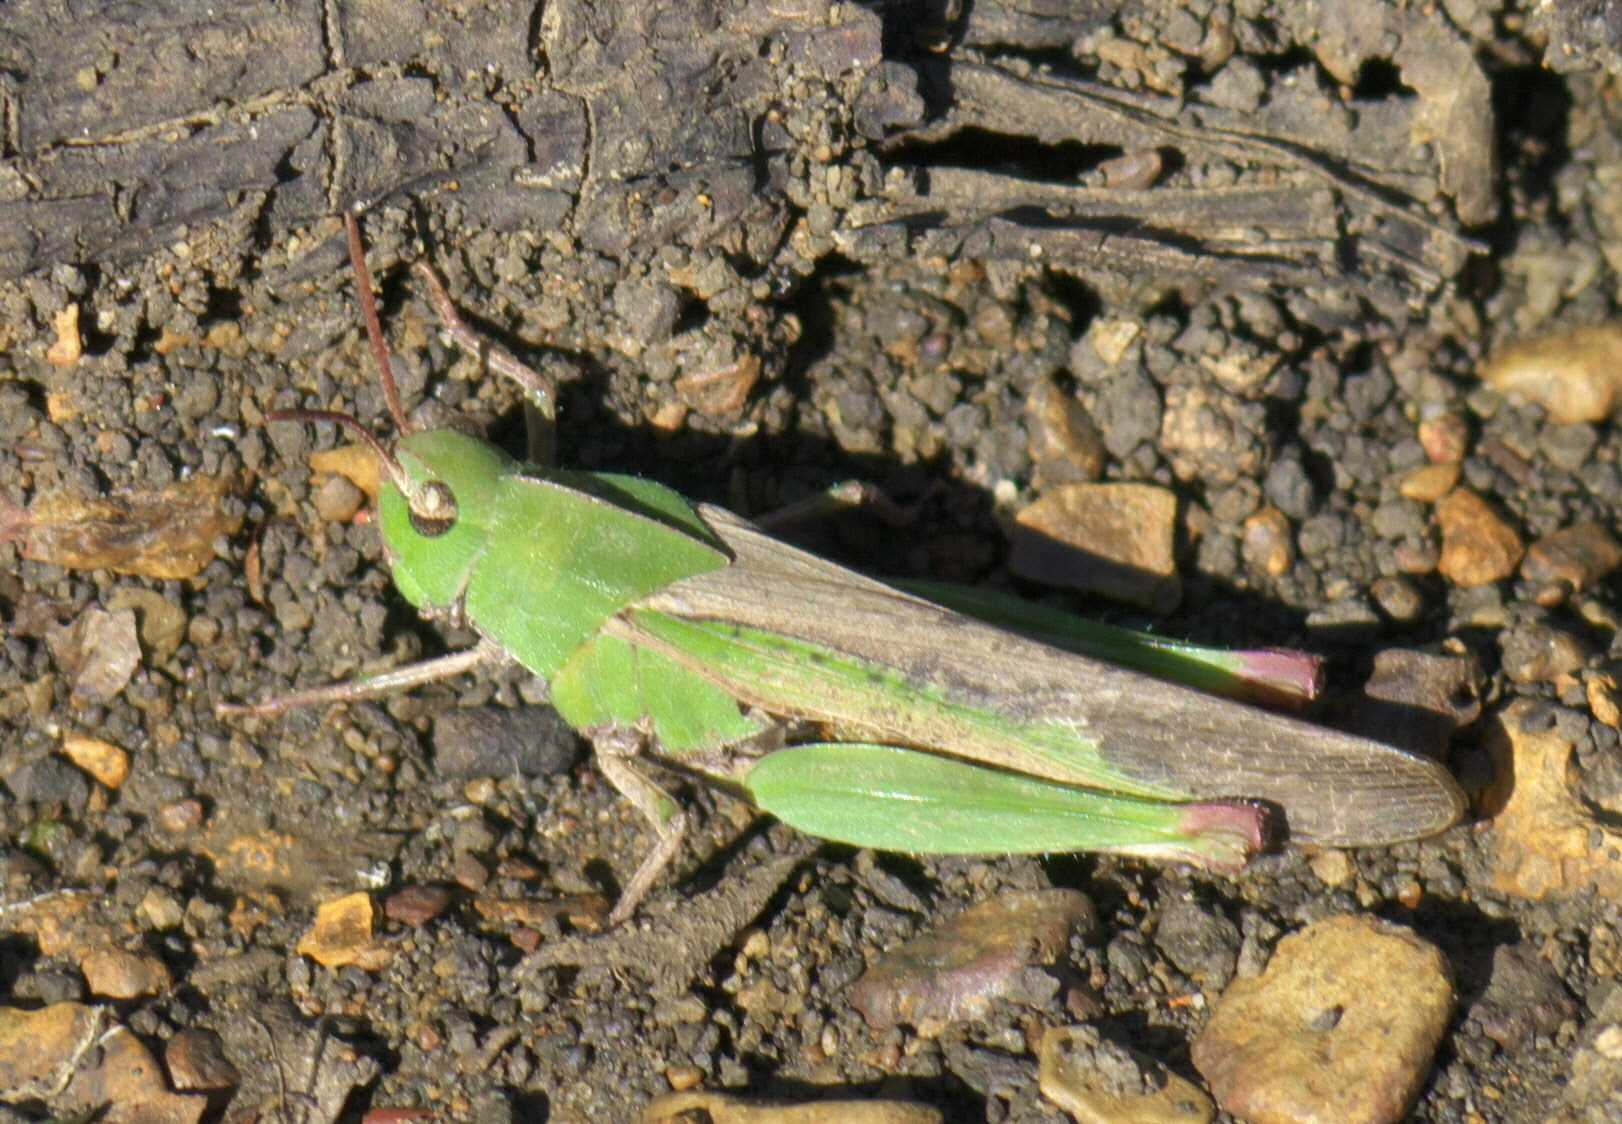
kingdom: Animalia
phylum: Arthropoda
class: Insecta
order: Orthoptera
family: Acrididae
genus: Chortophaga
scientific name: Chortophaga viridifasciata
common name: Green-striped grasshopper
